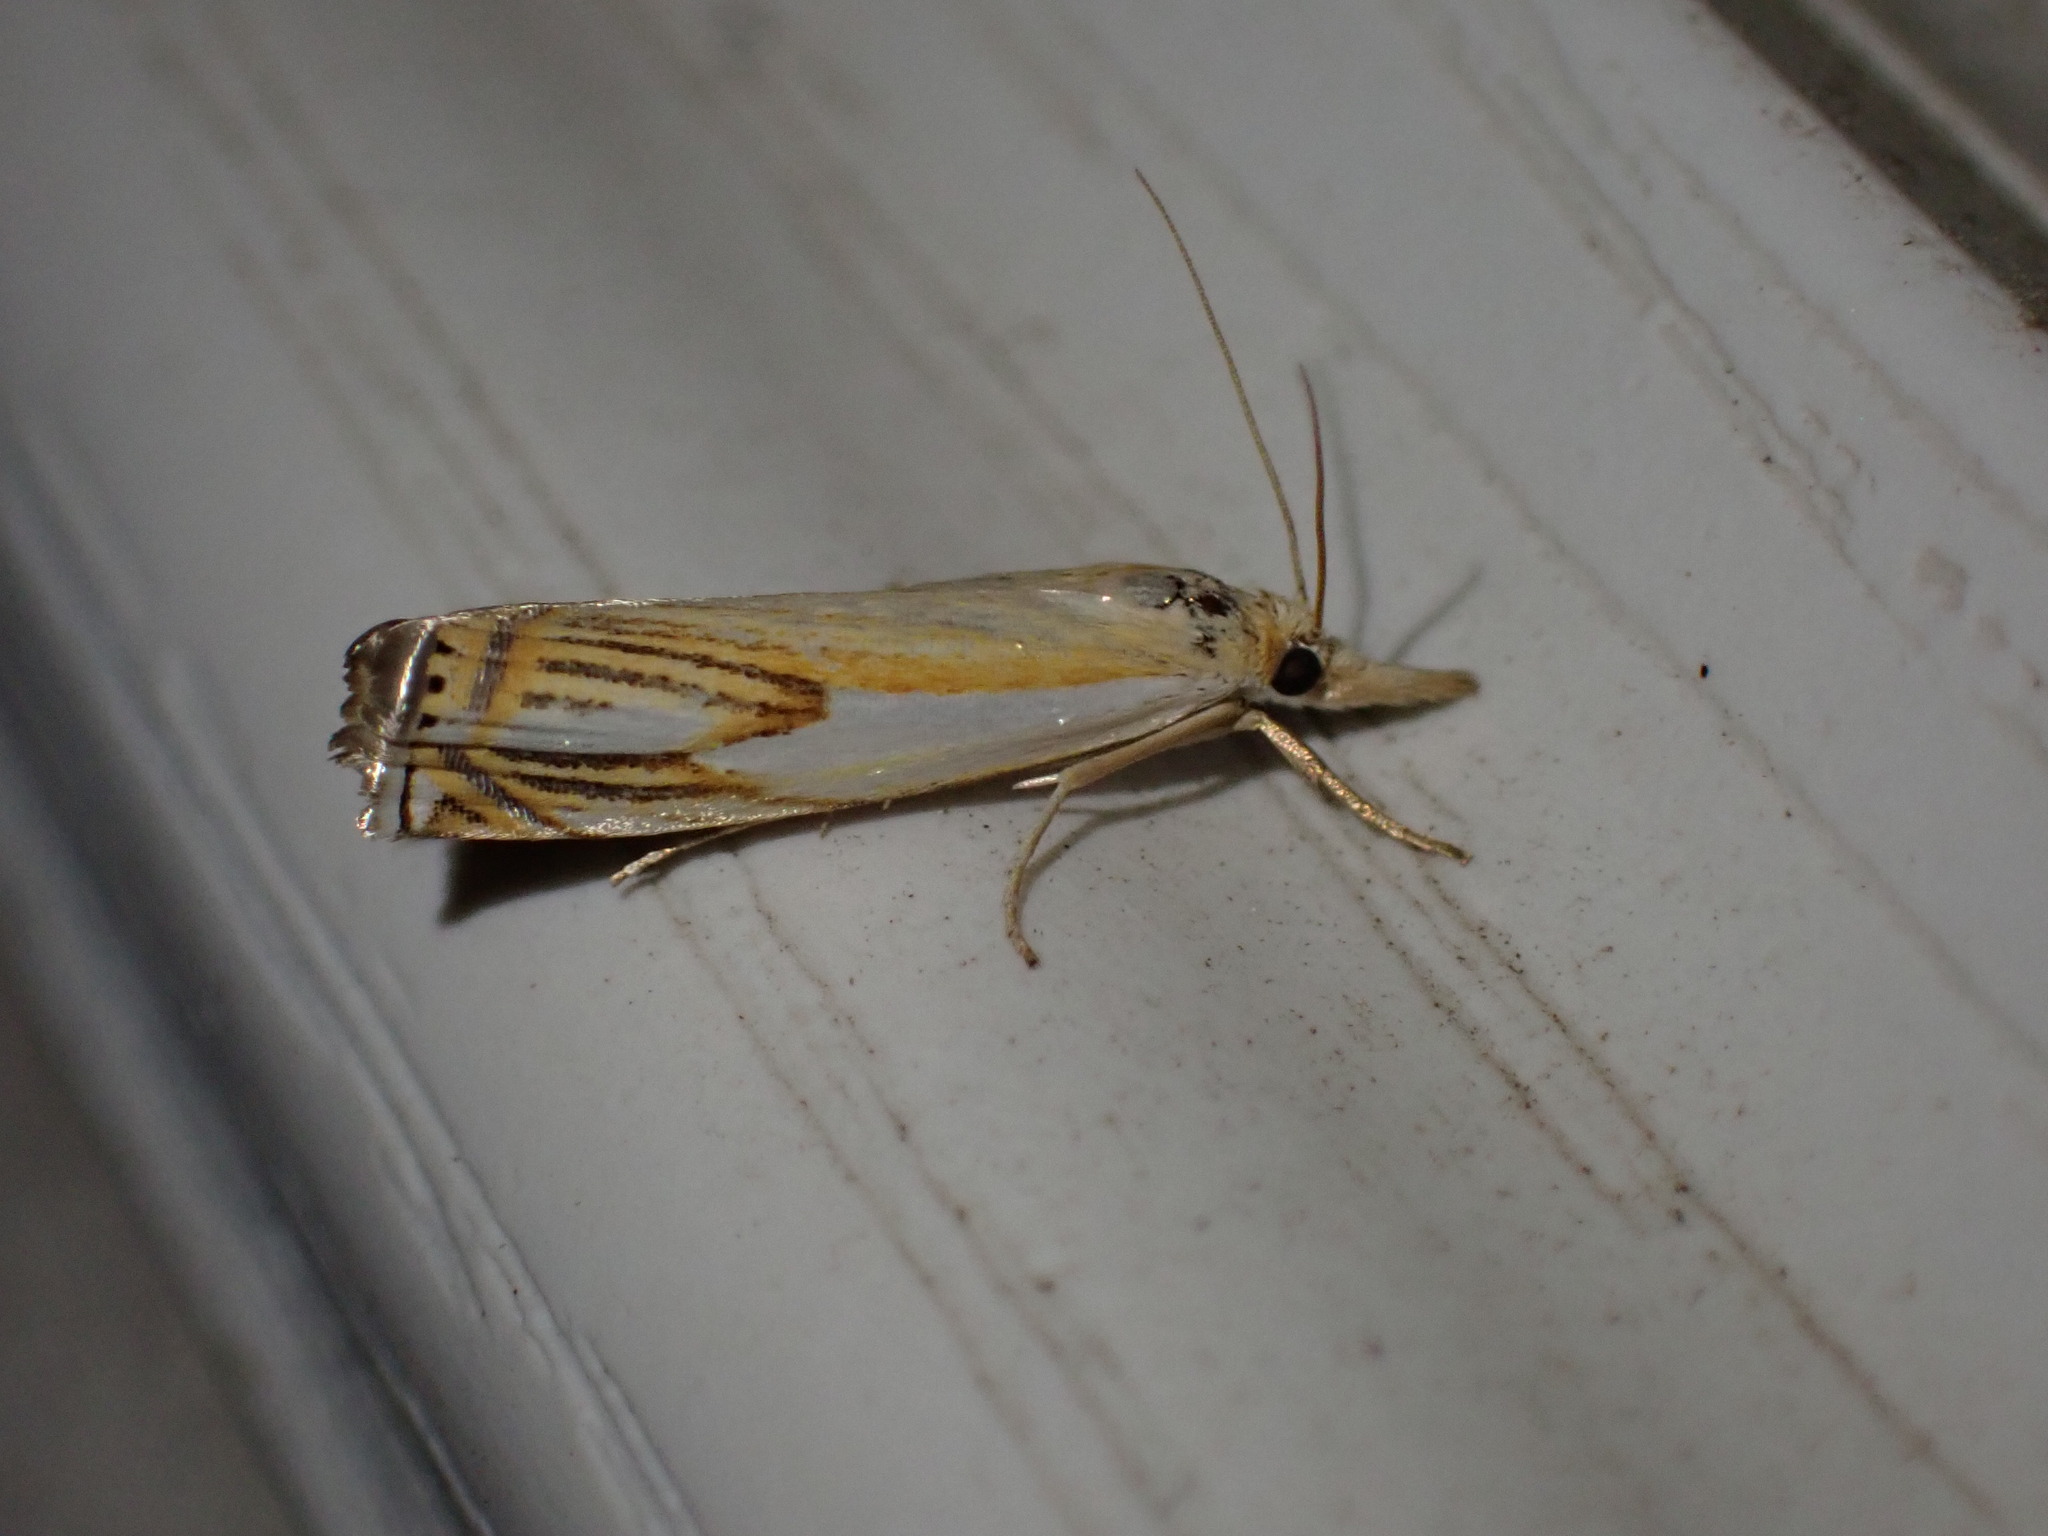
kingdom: Animalia
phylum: Arthropoda
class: Insecta
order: Lepidoptera
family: Crambidae
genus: Crambus
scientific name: Crambus agitatellus
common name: Double-banded grass-veneer
